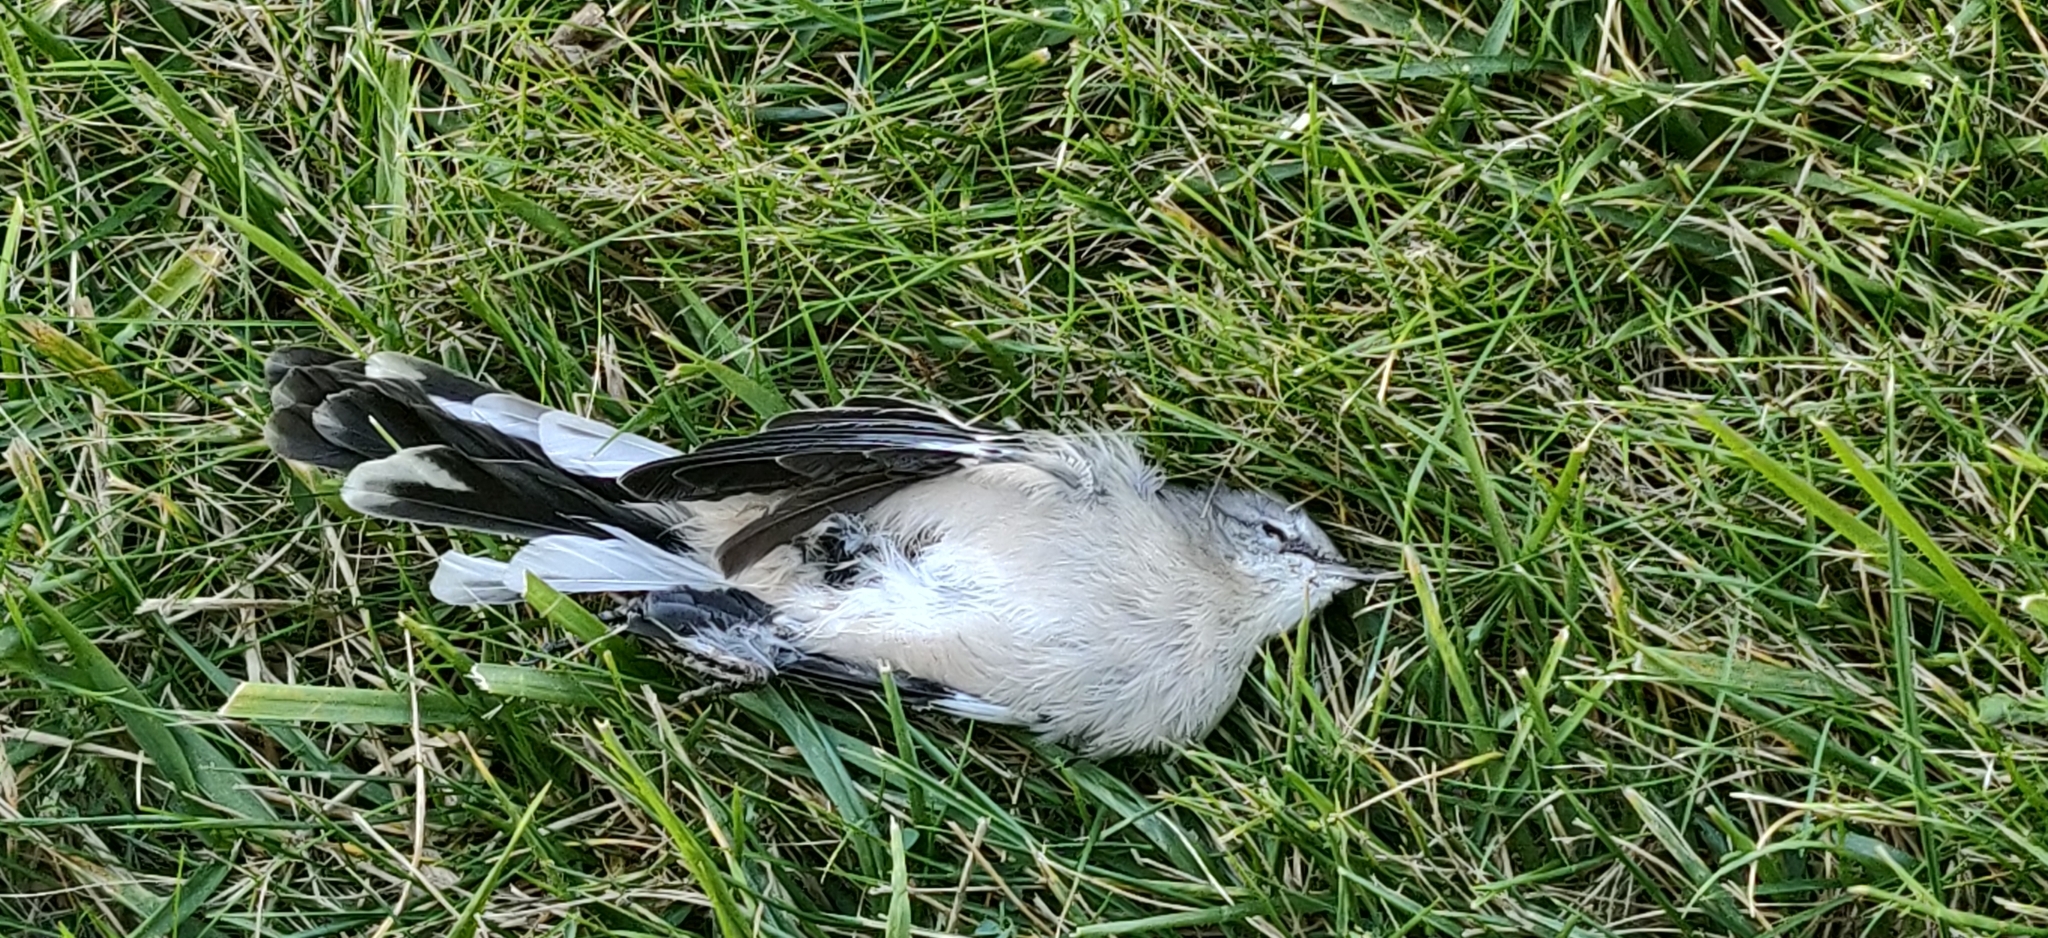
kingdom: Animalia
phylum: Chordata
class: Aves
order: Passeriformes
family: Mimidae
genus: Mimus
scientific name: Mimus polyglottos
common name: Northern mockingbird
